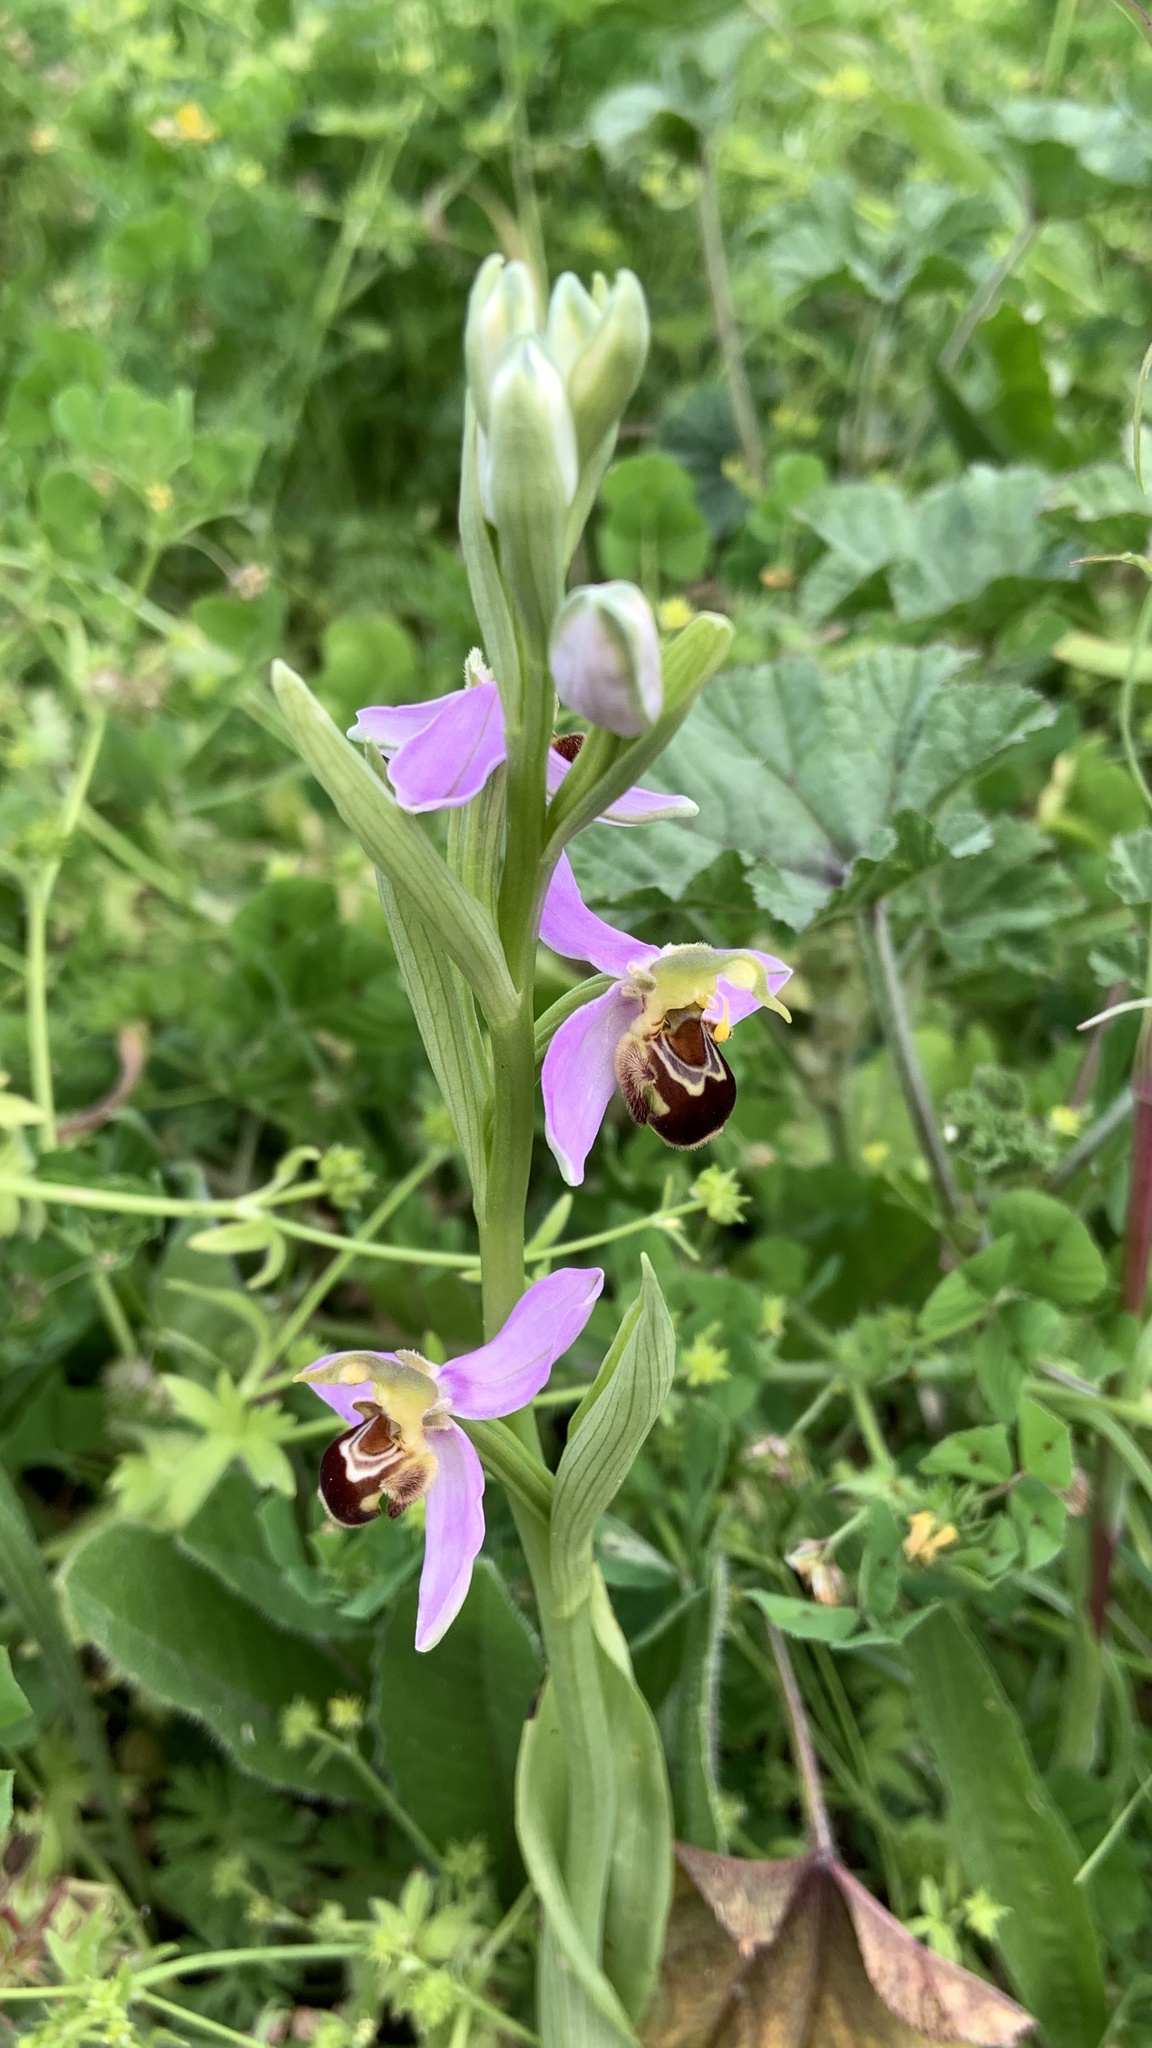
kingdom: Plantae
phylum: Tracheophyta
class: Liliopsida
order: Asparagales
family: Orchidaceae
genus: Ophrys
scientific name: Ophrys apifera
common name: Bee orchid
